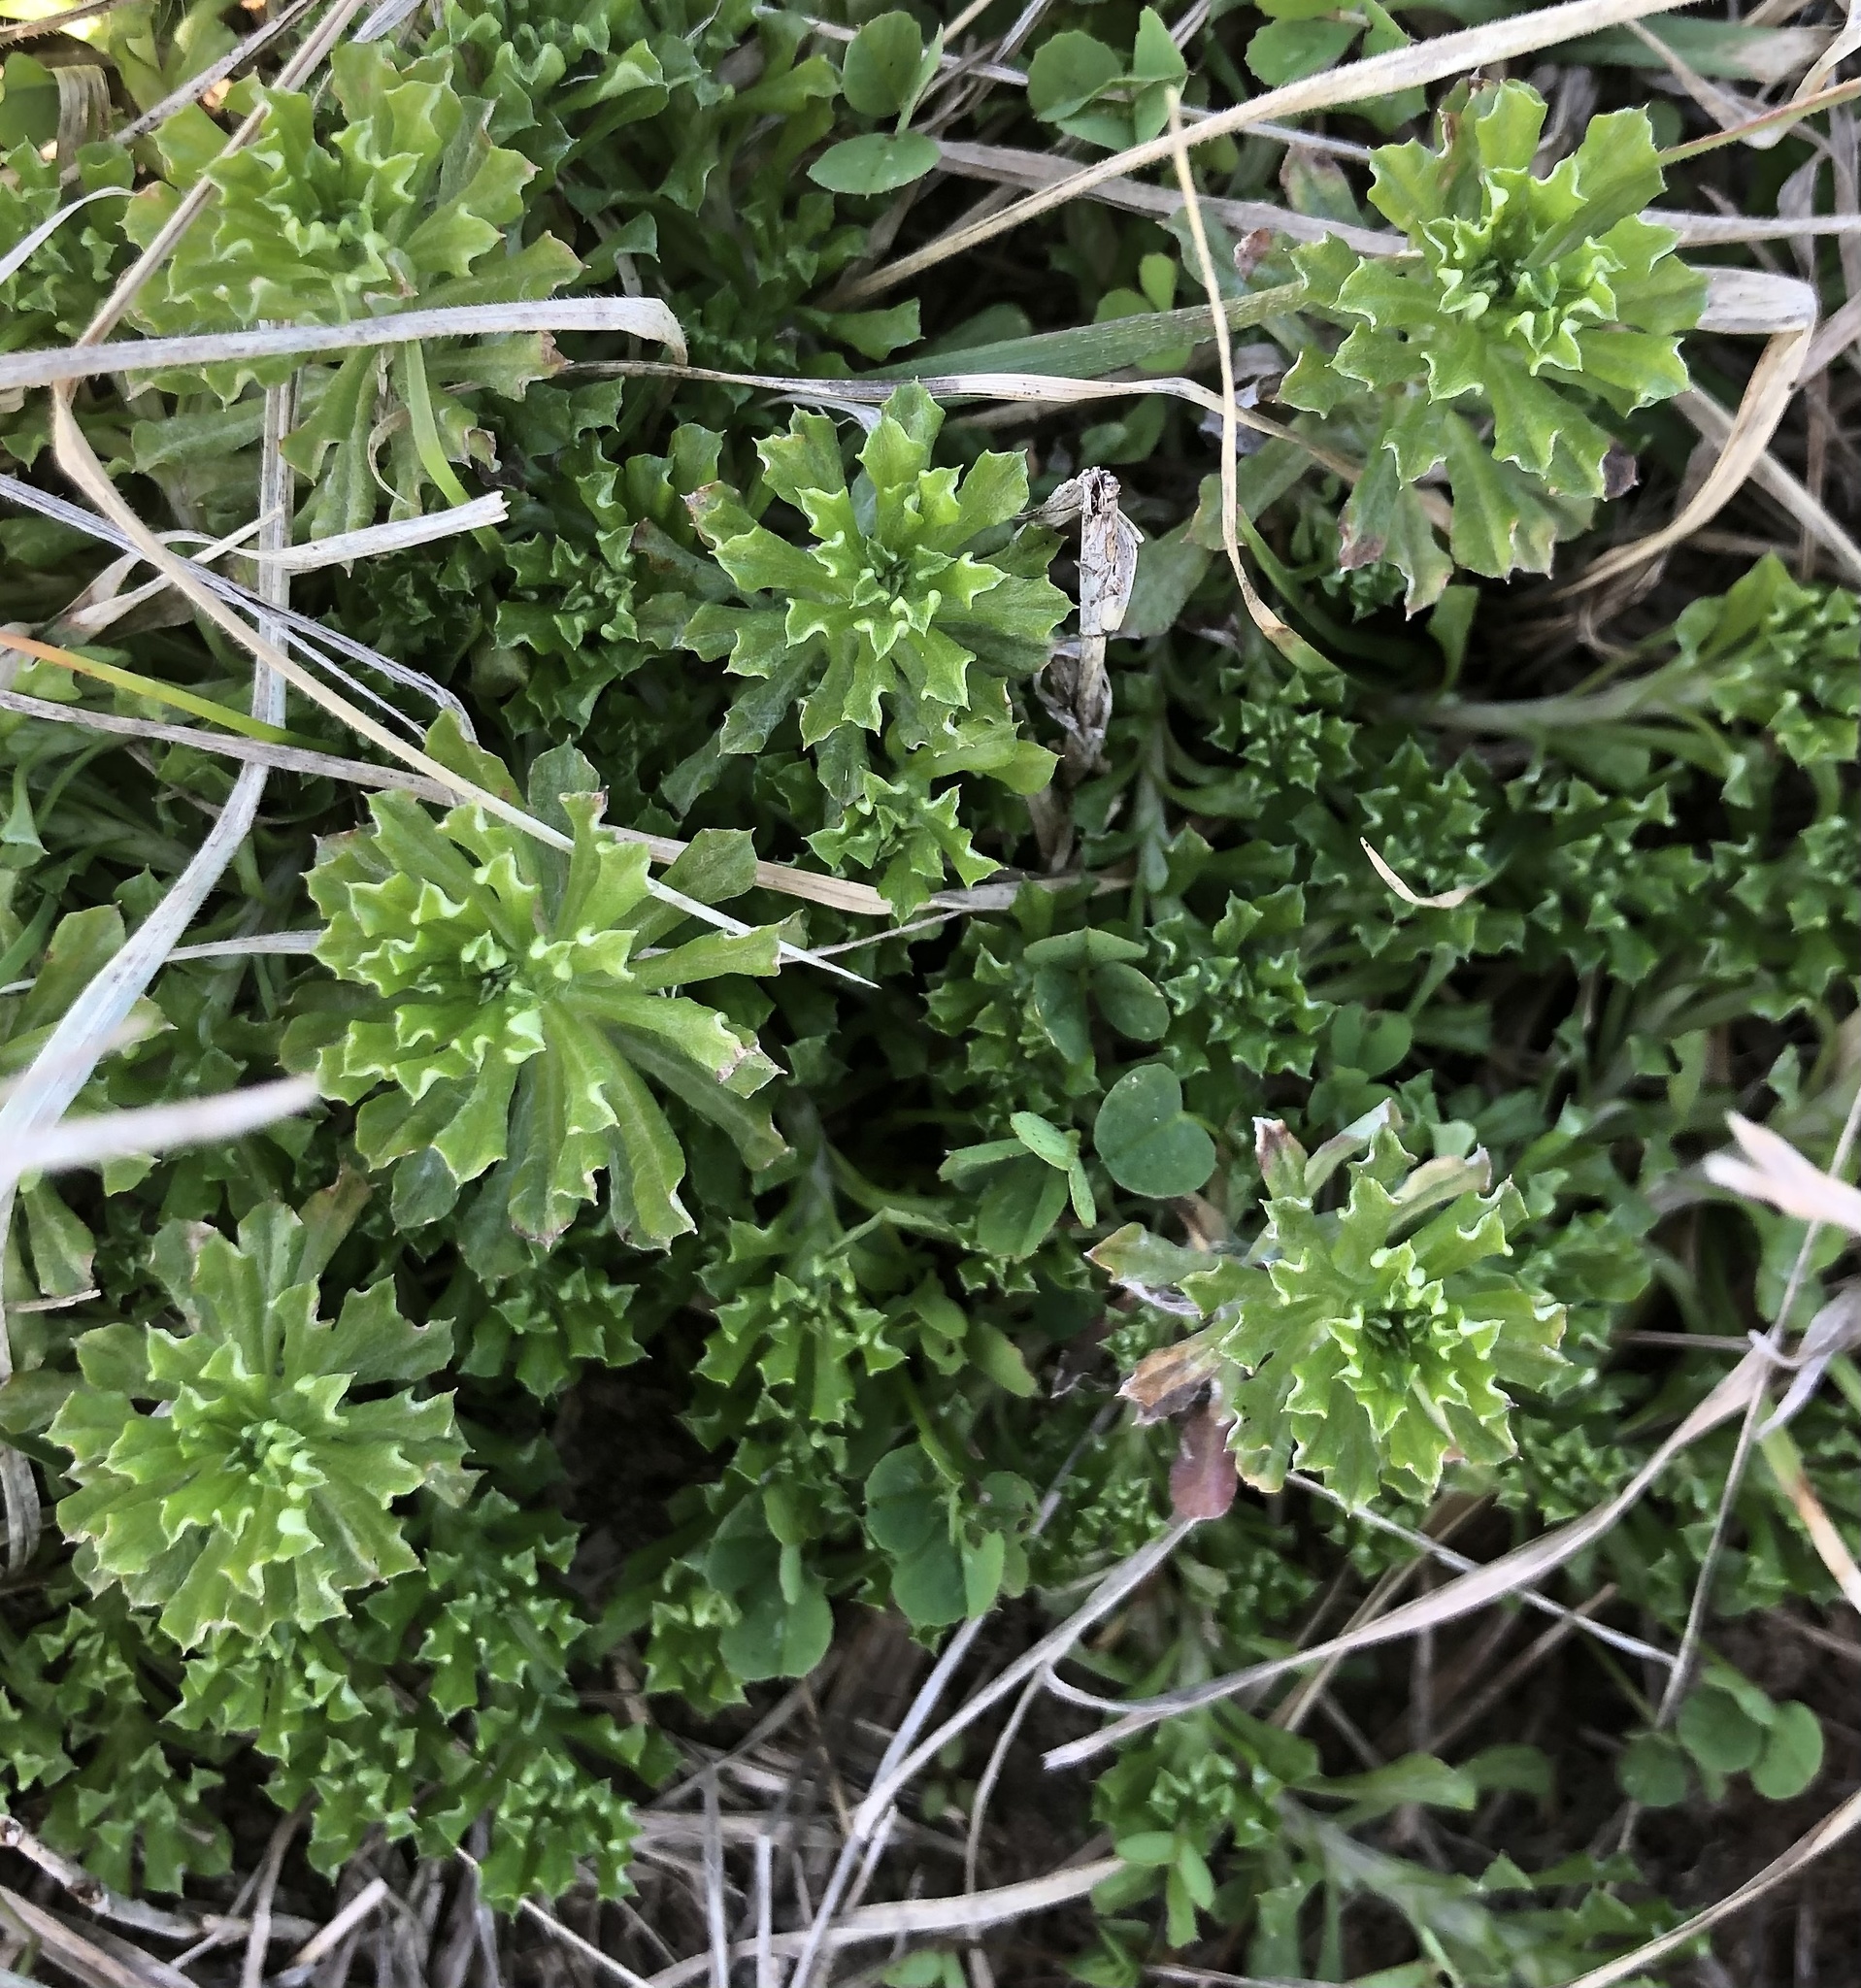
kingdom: Plantae
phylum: Tracheophyta
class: Magnoliopsida
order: Asterales
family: Asteraceae
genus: Facelis
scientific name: Facelis retusa
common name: Annual trampweed
